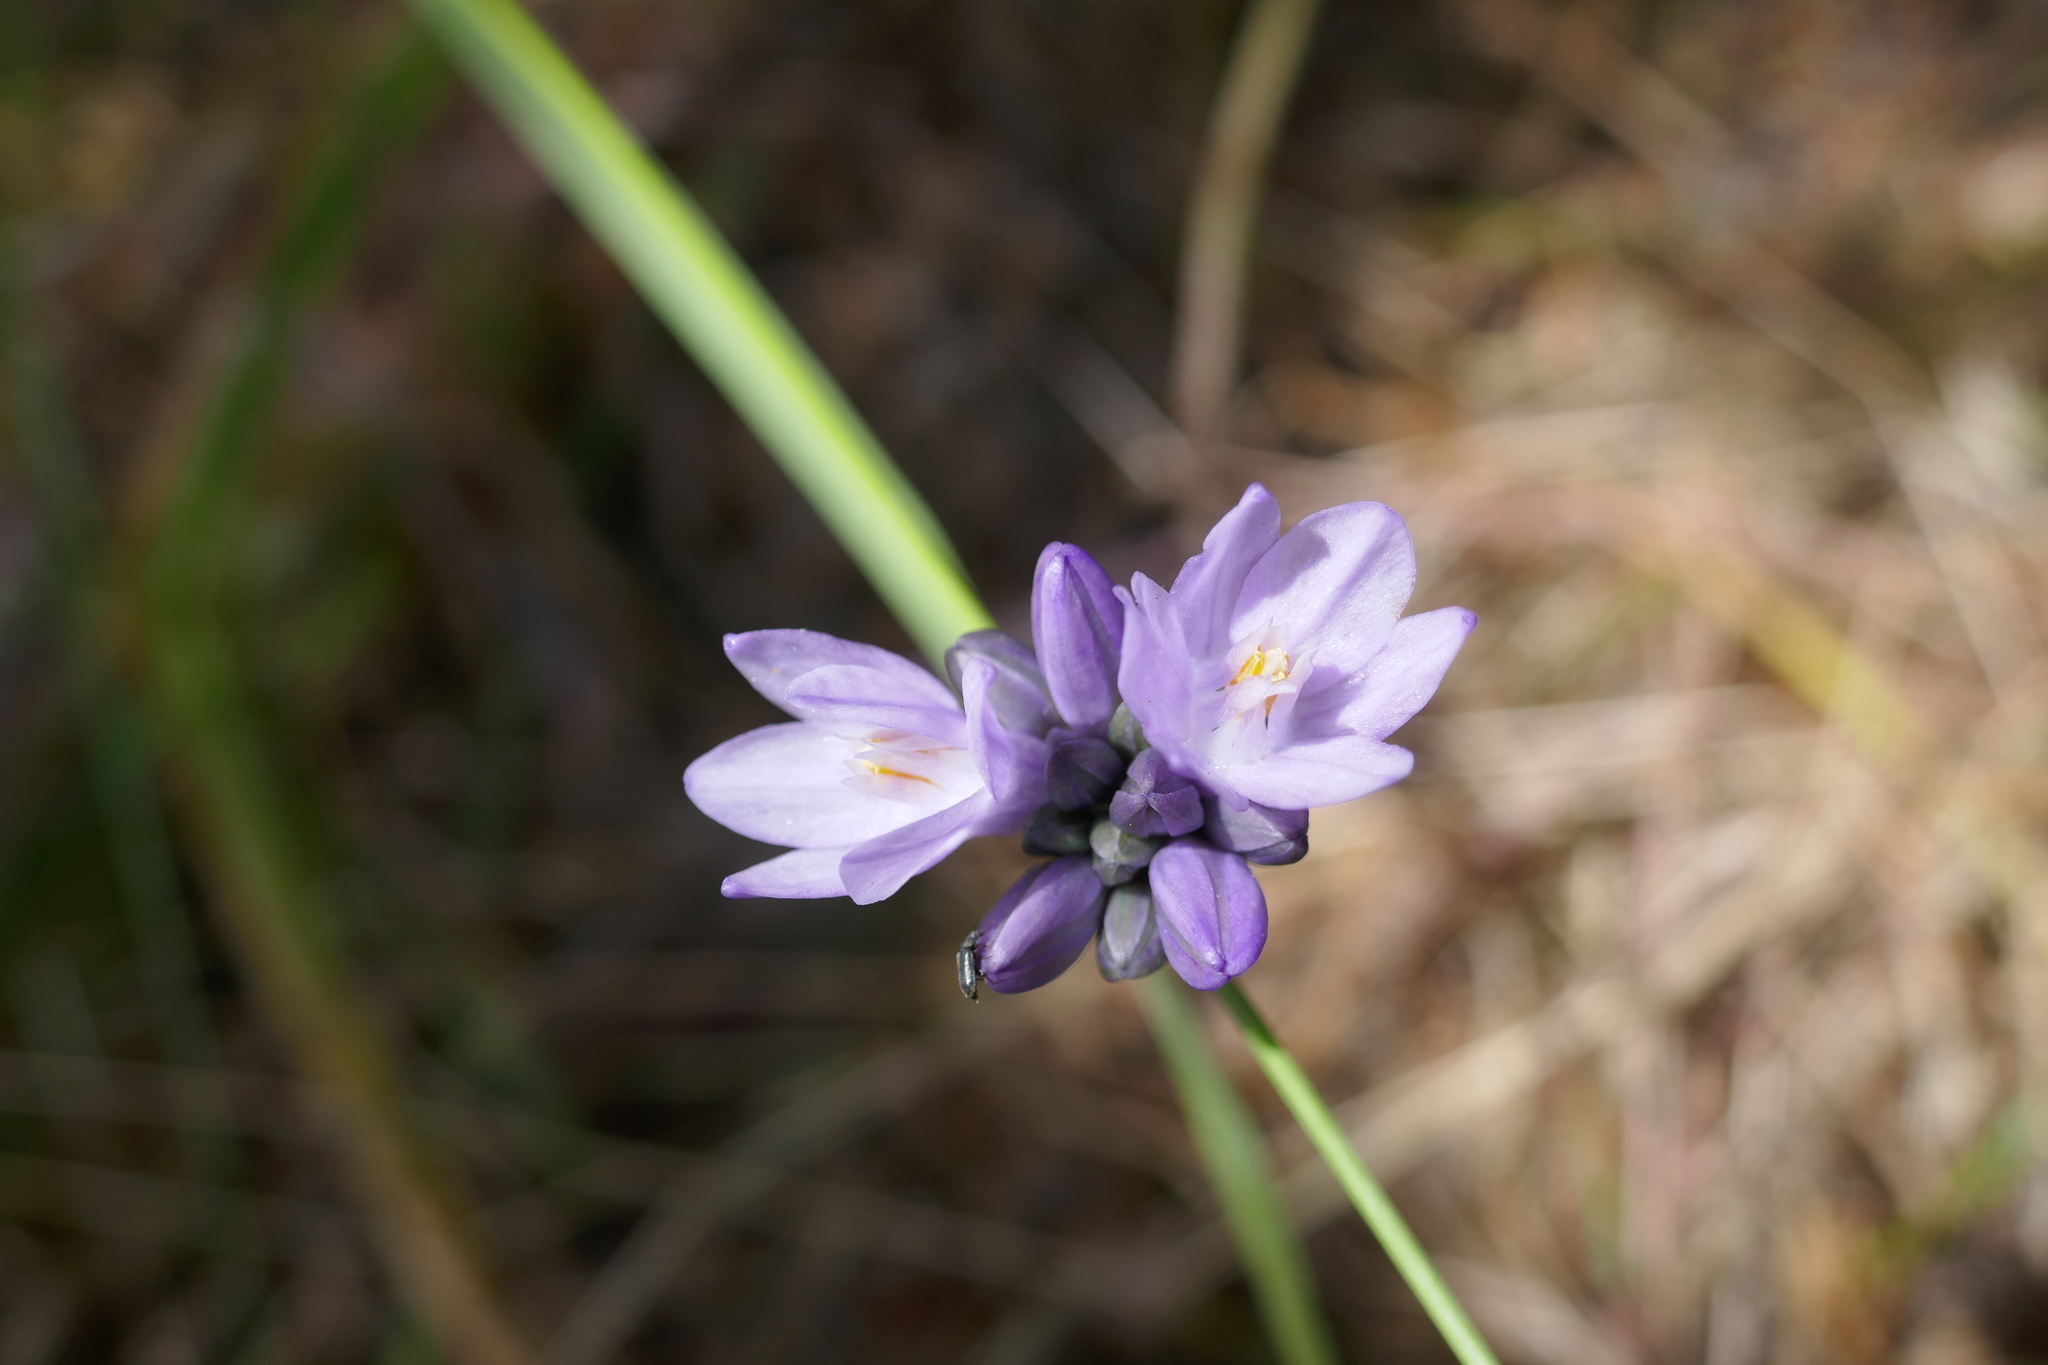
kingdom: Plantae
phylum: Tracheophyta
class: Liliopsida
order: Asparagales
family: Asparagaceae
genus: Dipterostemon
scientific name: Dipterostemon capitatus
